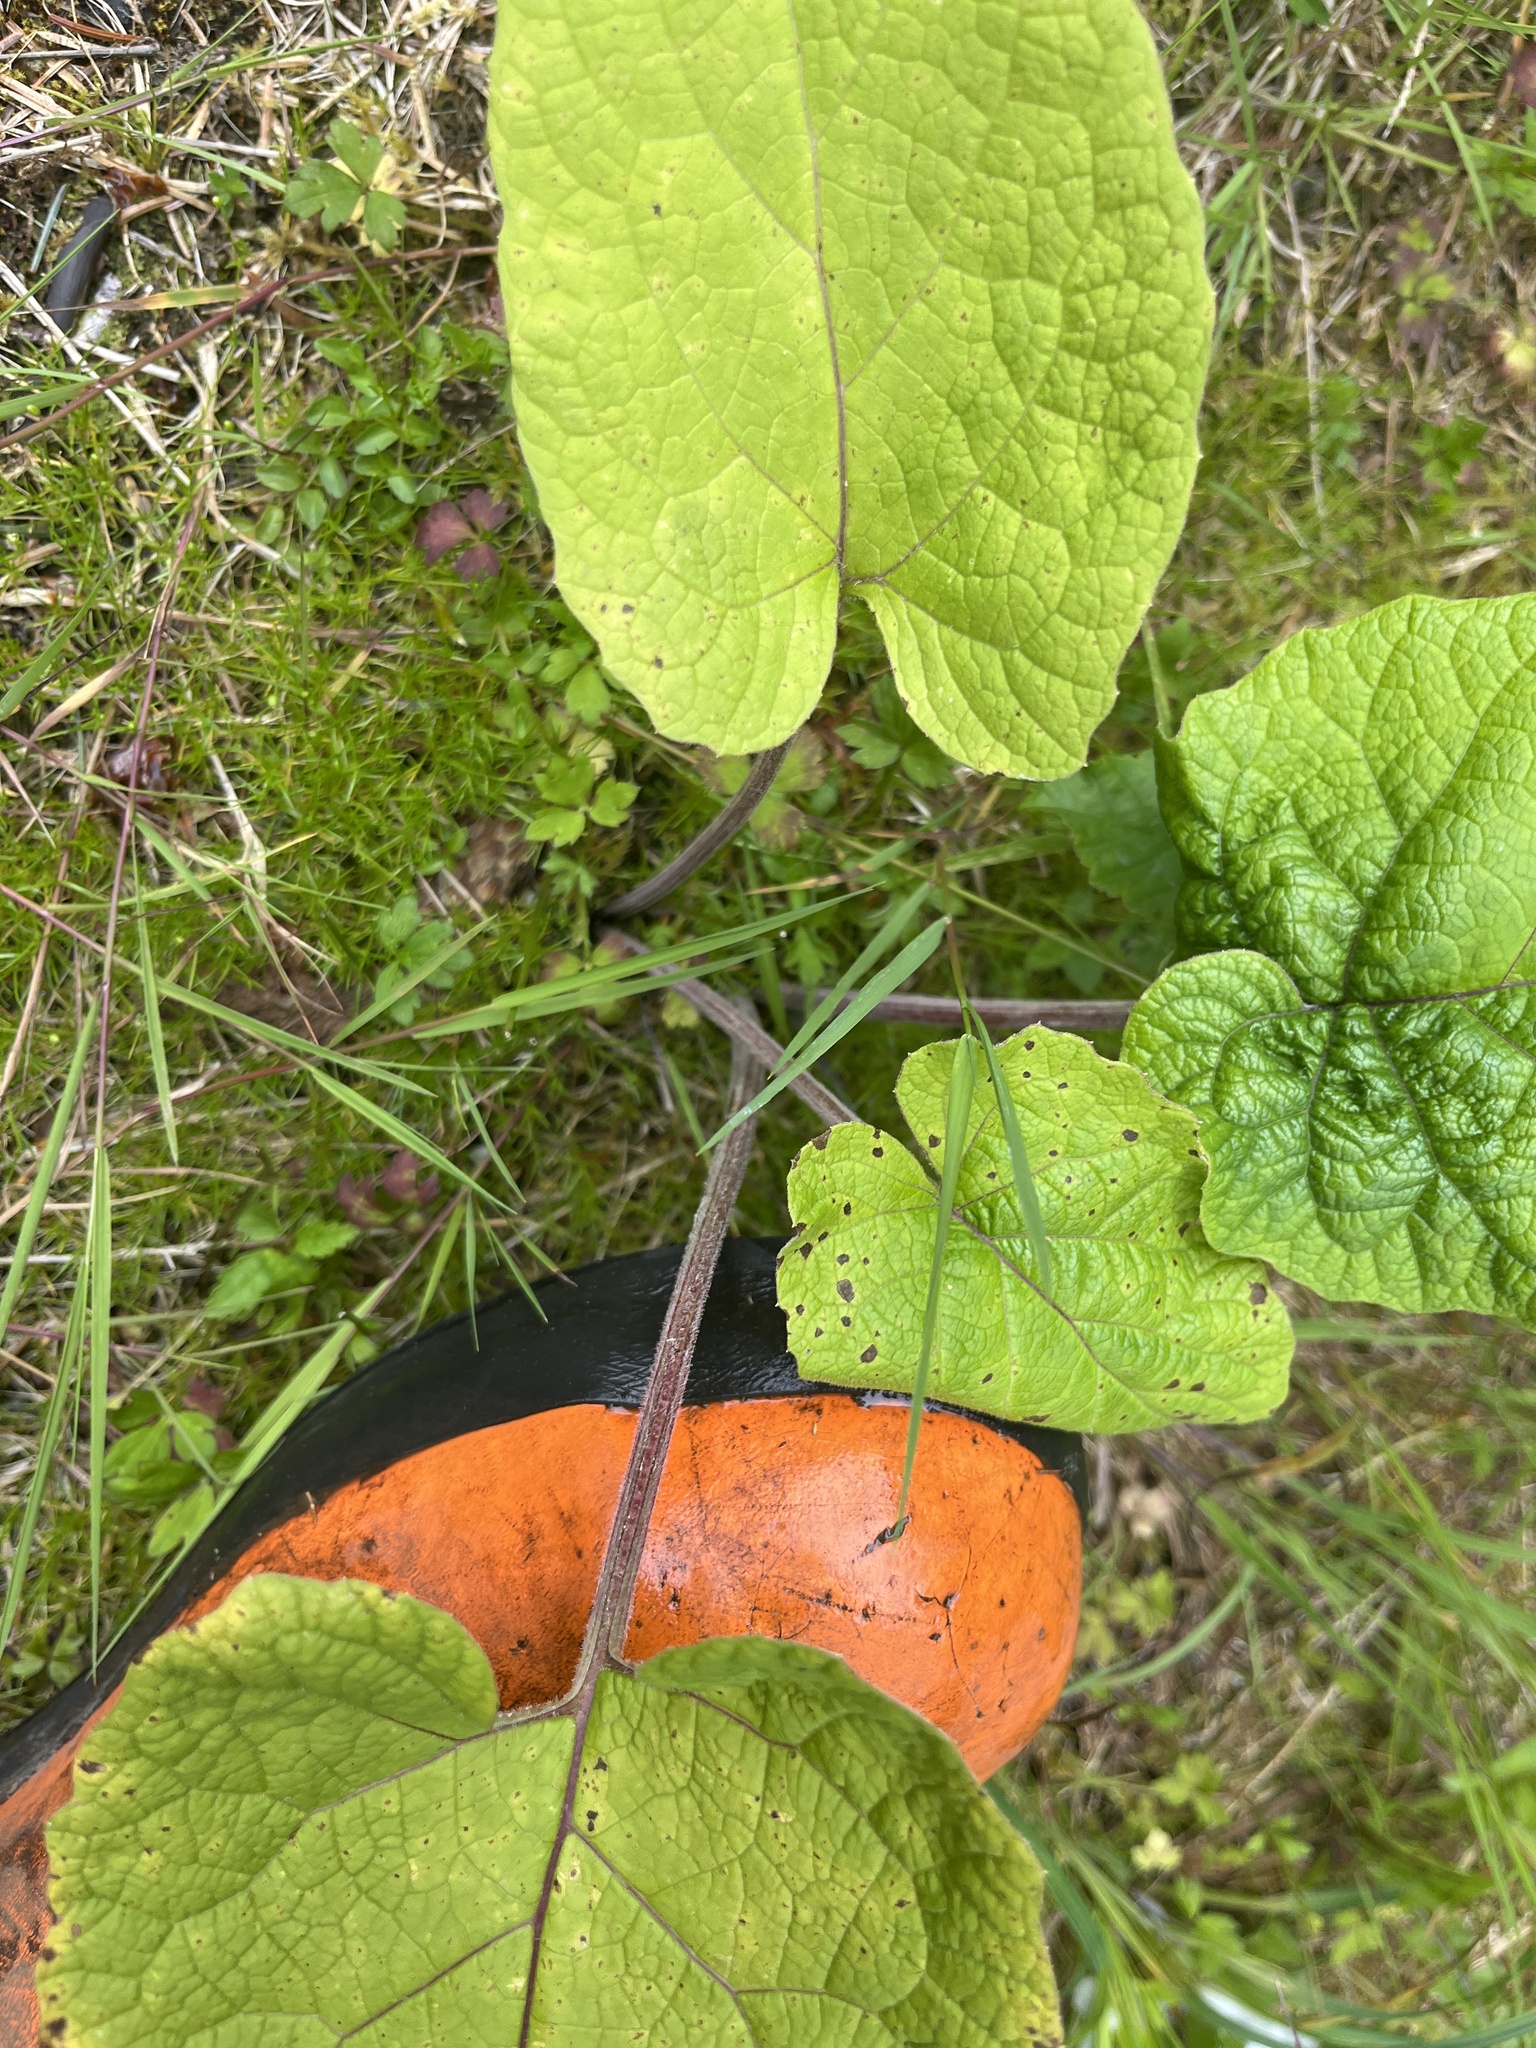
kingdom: Plantae
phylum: Tracheophyta
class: Magnoliopsida
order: Asterales
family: Asteraceae
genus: Arctium
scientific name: Arctium minus
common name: Lesser burdock
